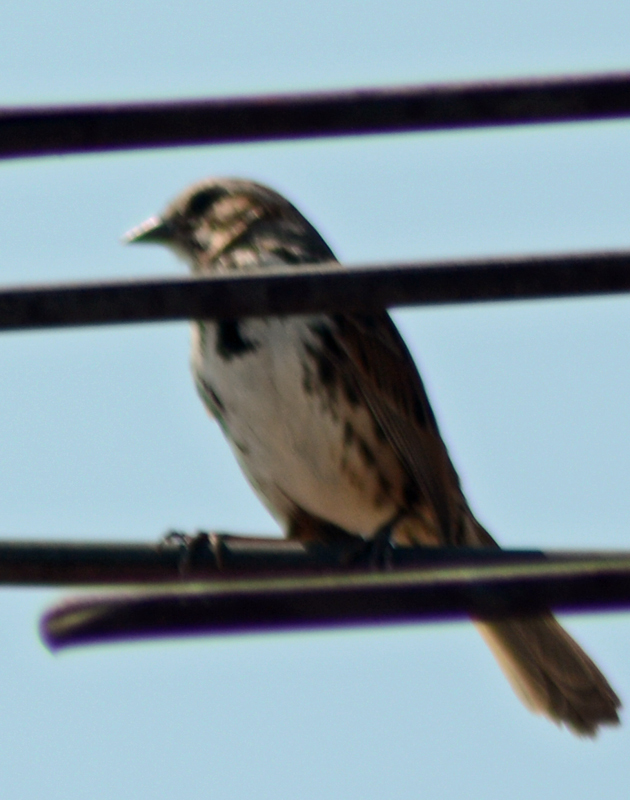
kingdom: Animalia
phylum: Chordata
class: Aves
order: Passeriformes
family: Passerellidae
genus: Melospiza
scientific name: Melospiza melodia
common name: Song sparrow
